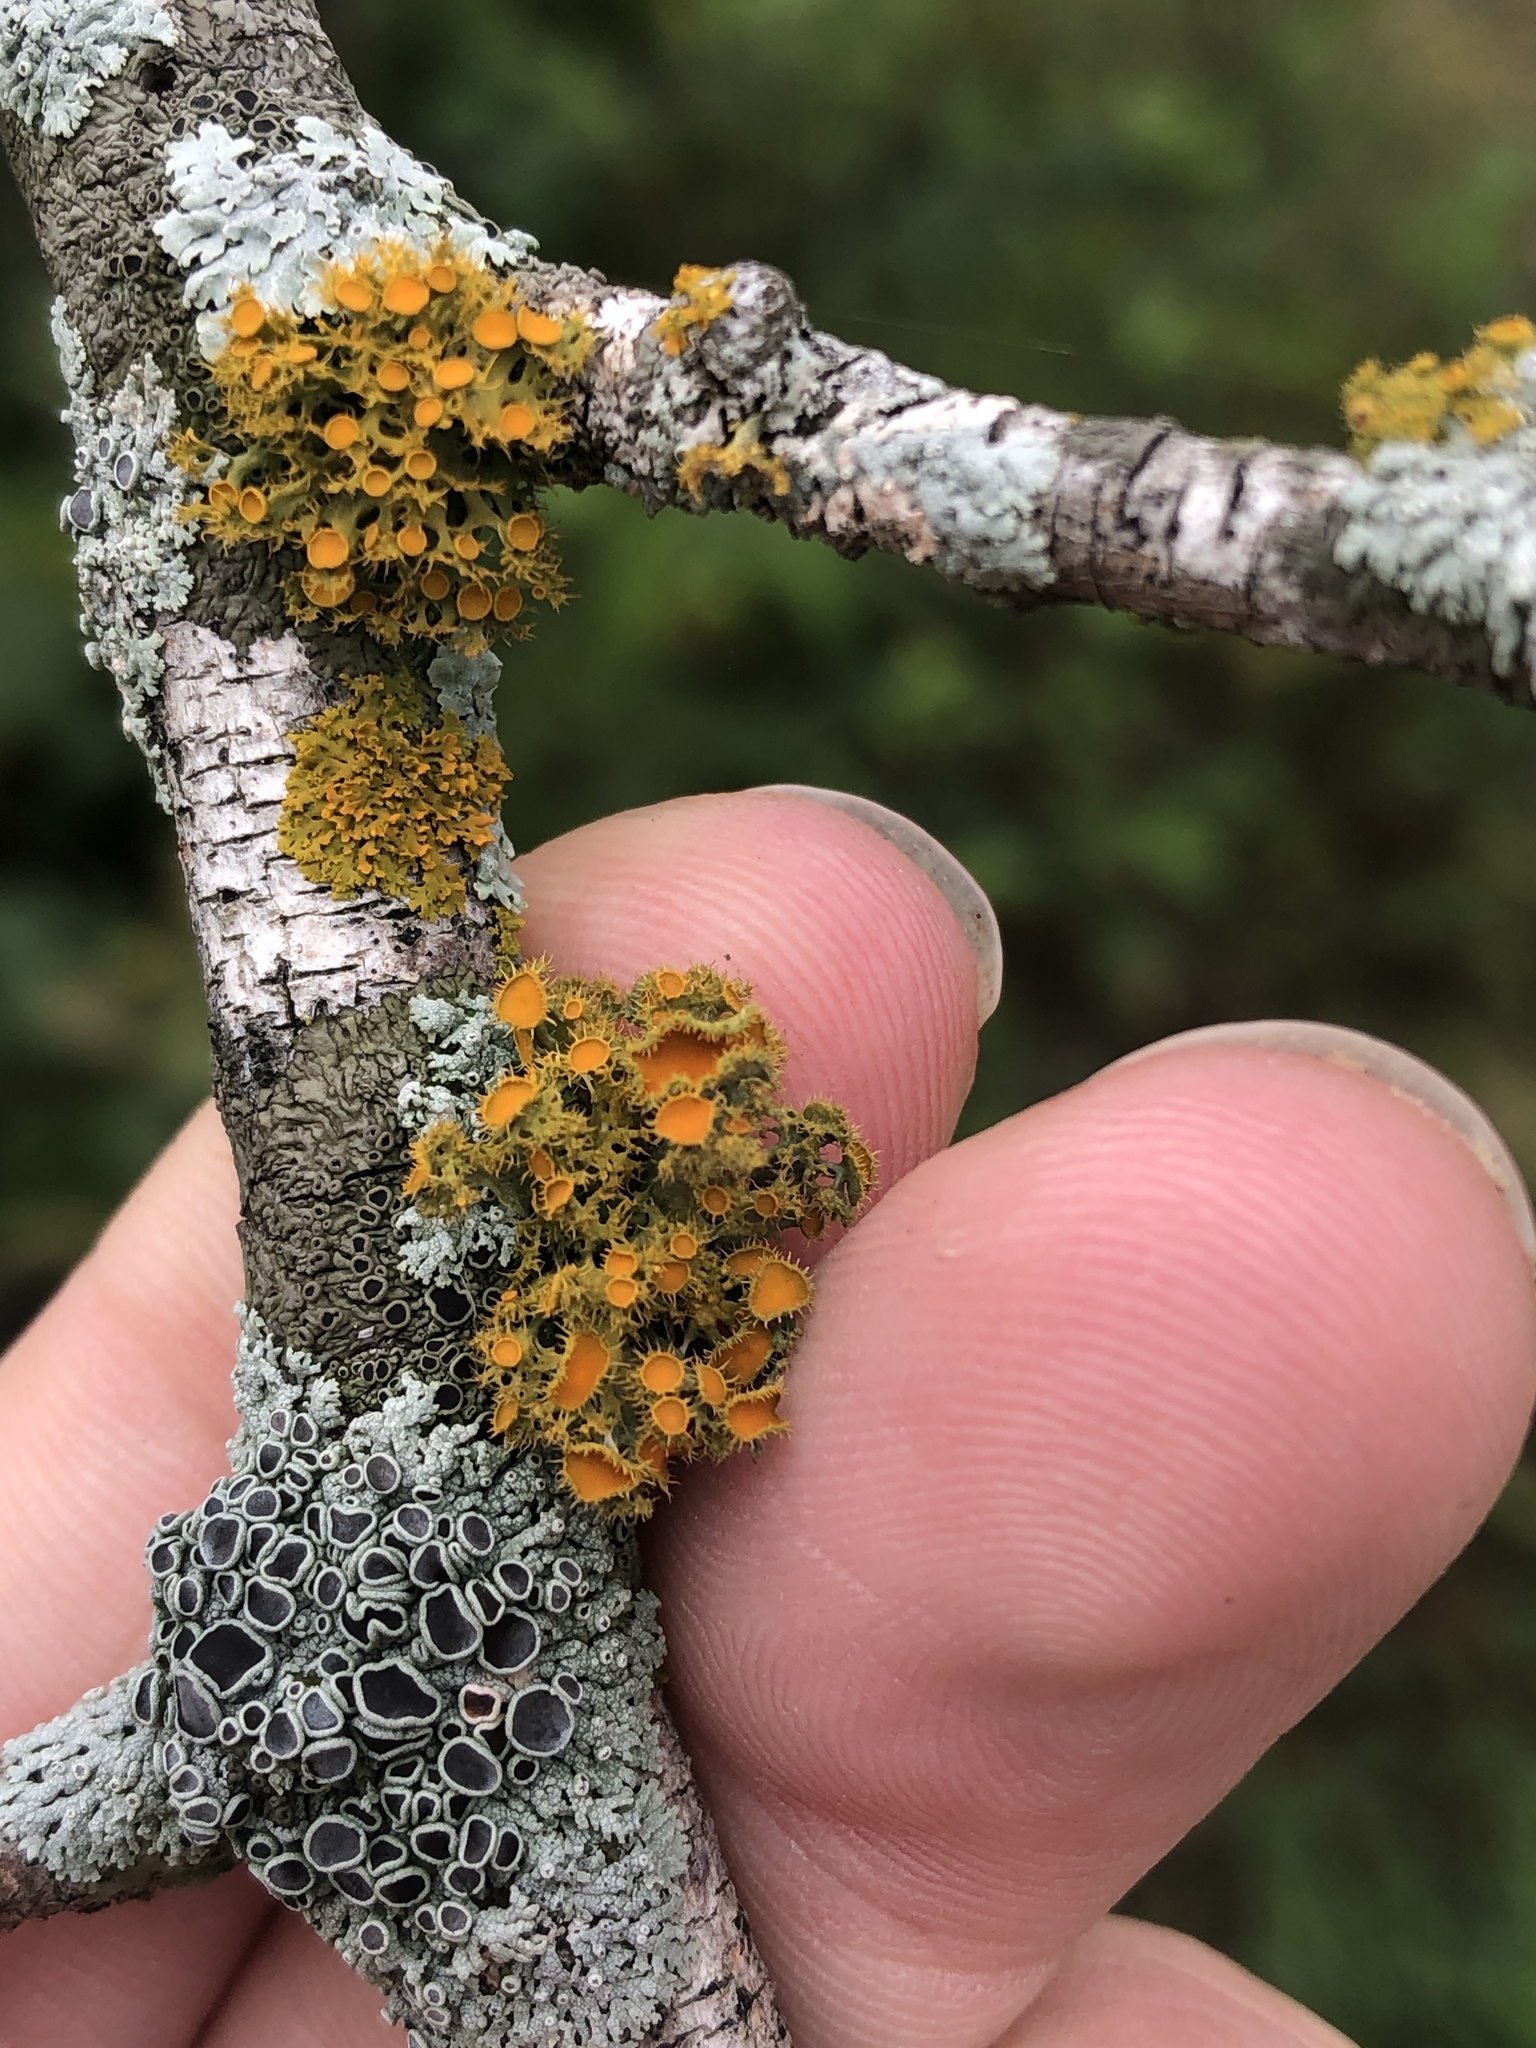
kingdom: Fungi
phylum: Ascomycota
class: Lecanoromycetes
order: Teloschistales
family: Teloschistaceae
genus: Niorma
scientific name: Niorma chrysophthalma
